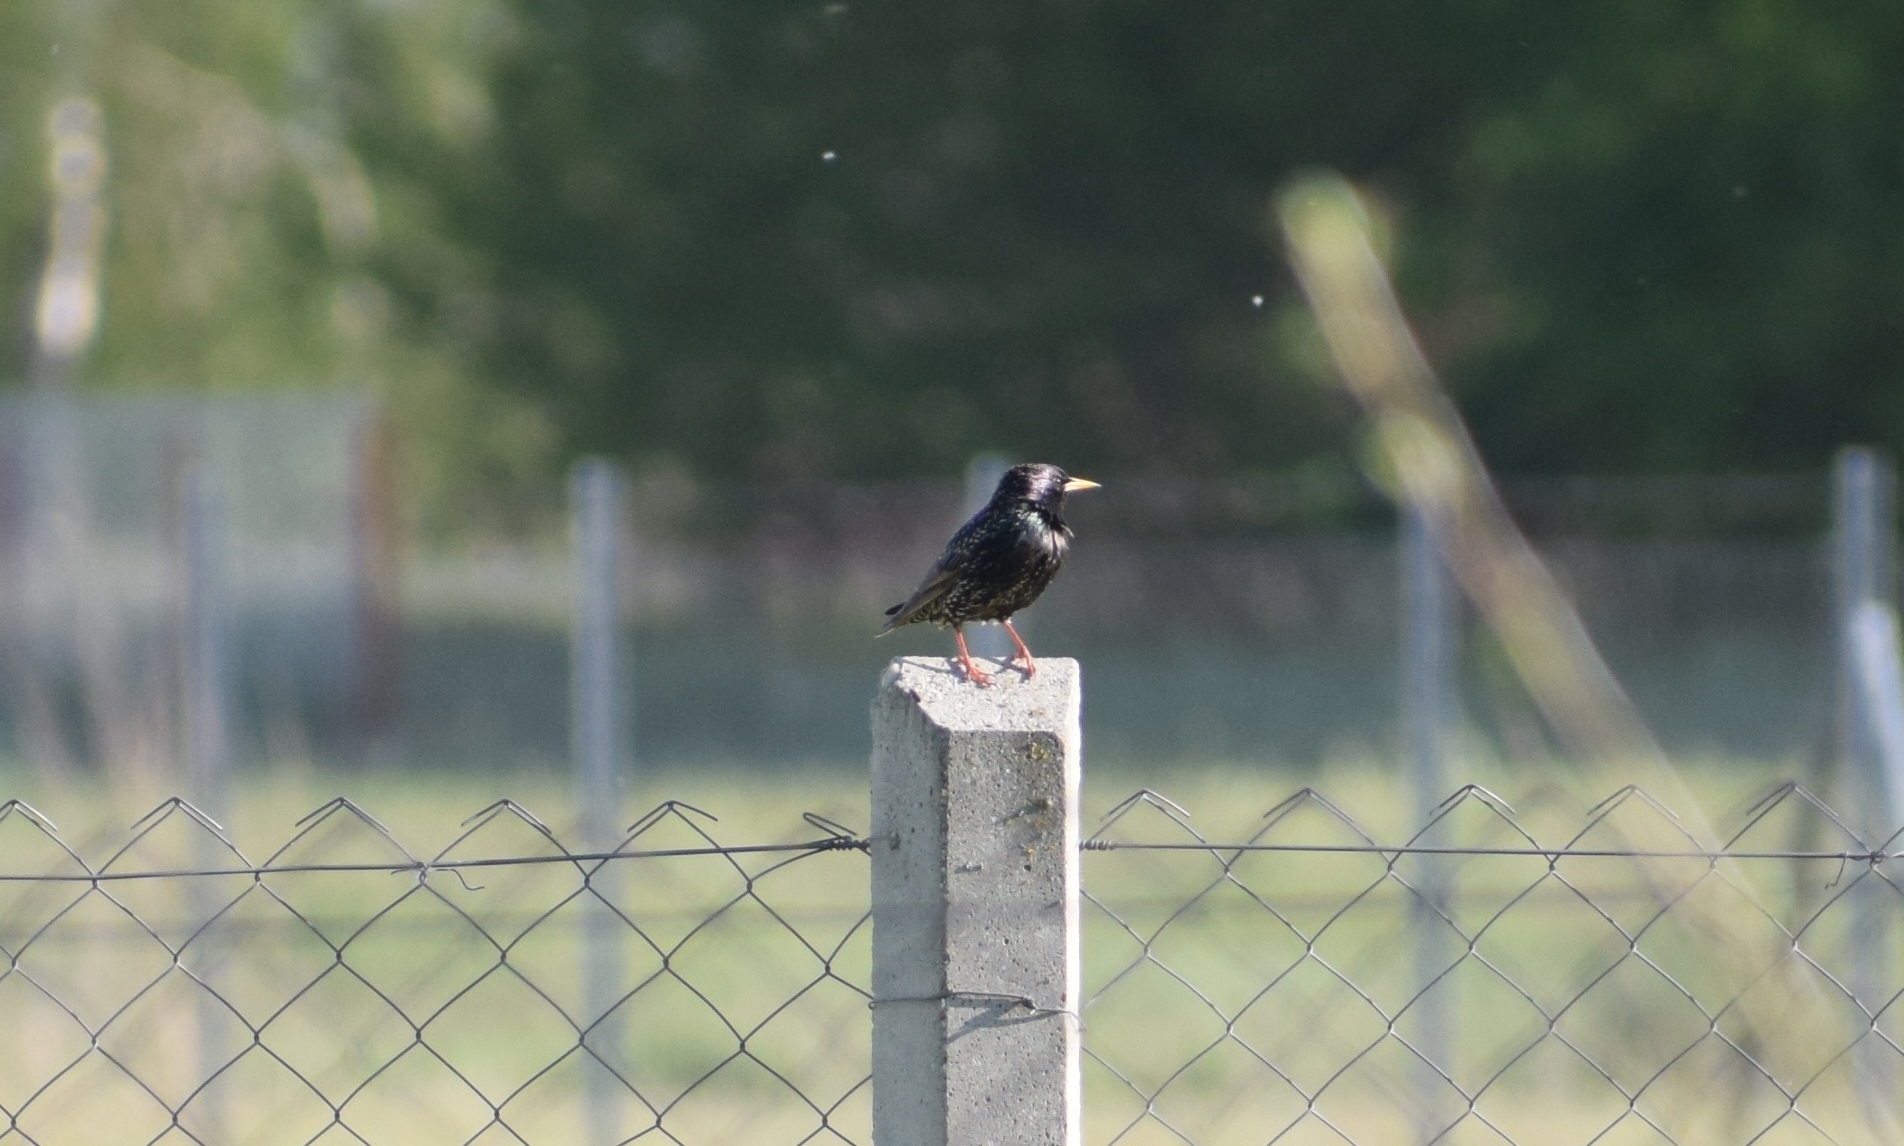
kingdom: Animalia
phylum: Chordata
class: Aves
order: Passeriformes
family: Sturnidae
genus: Sturnus
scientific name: Sturnus vulgaris
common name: Common starling
